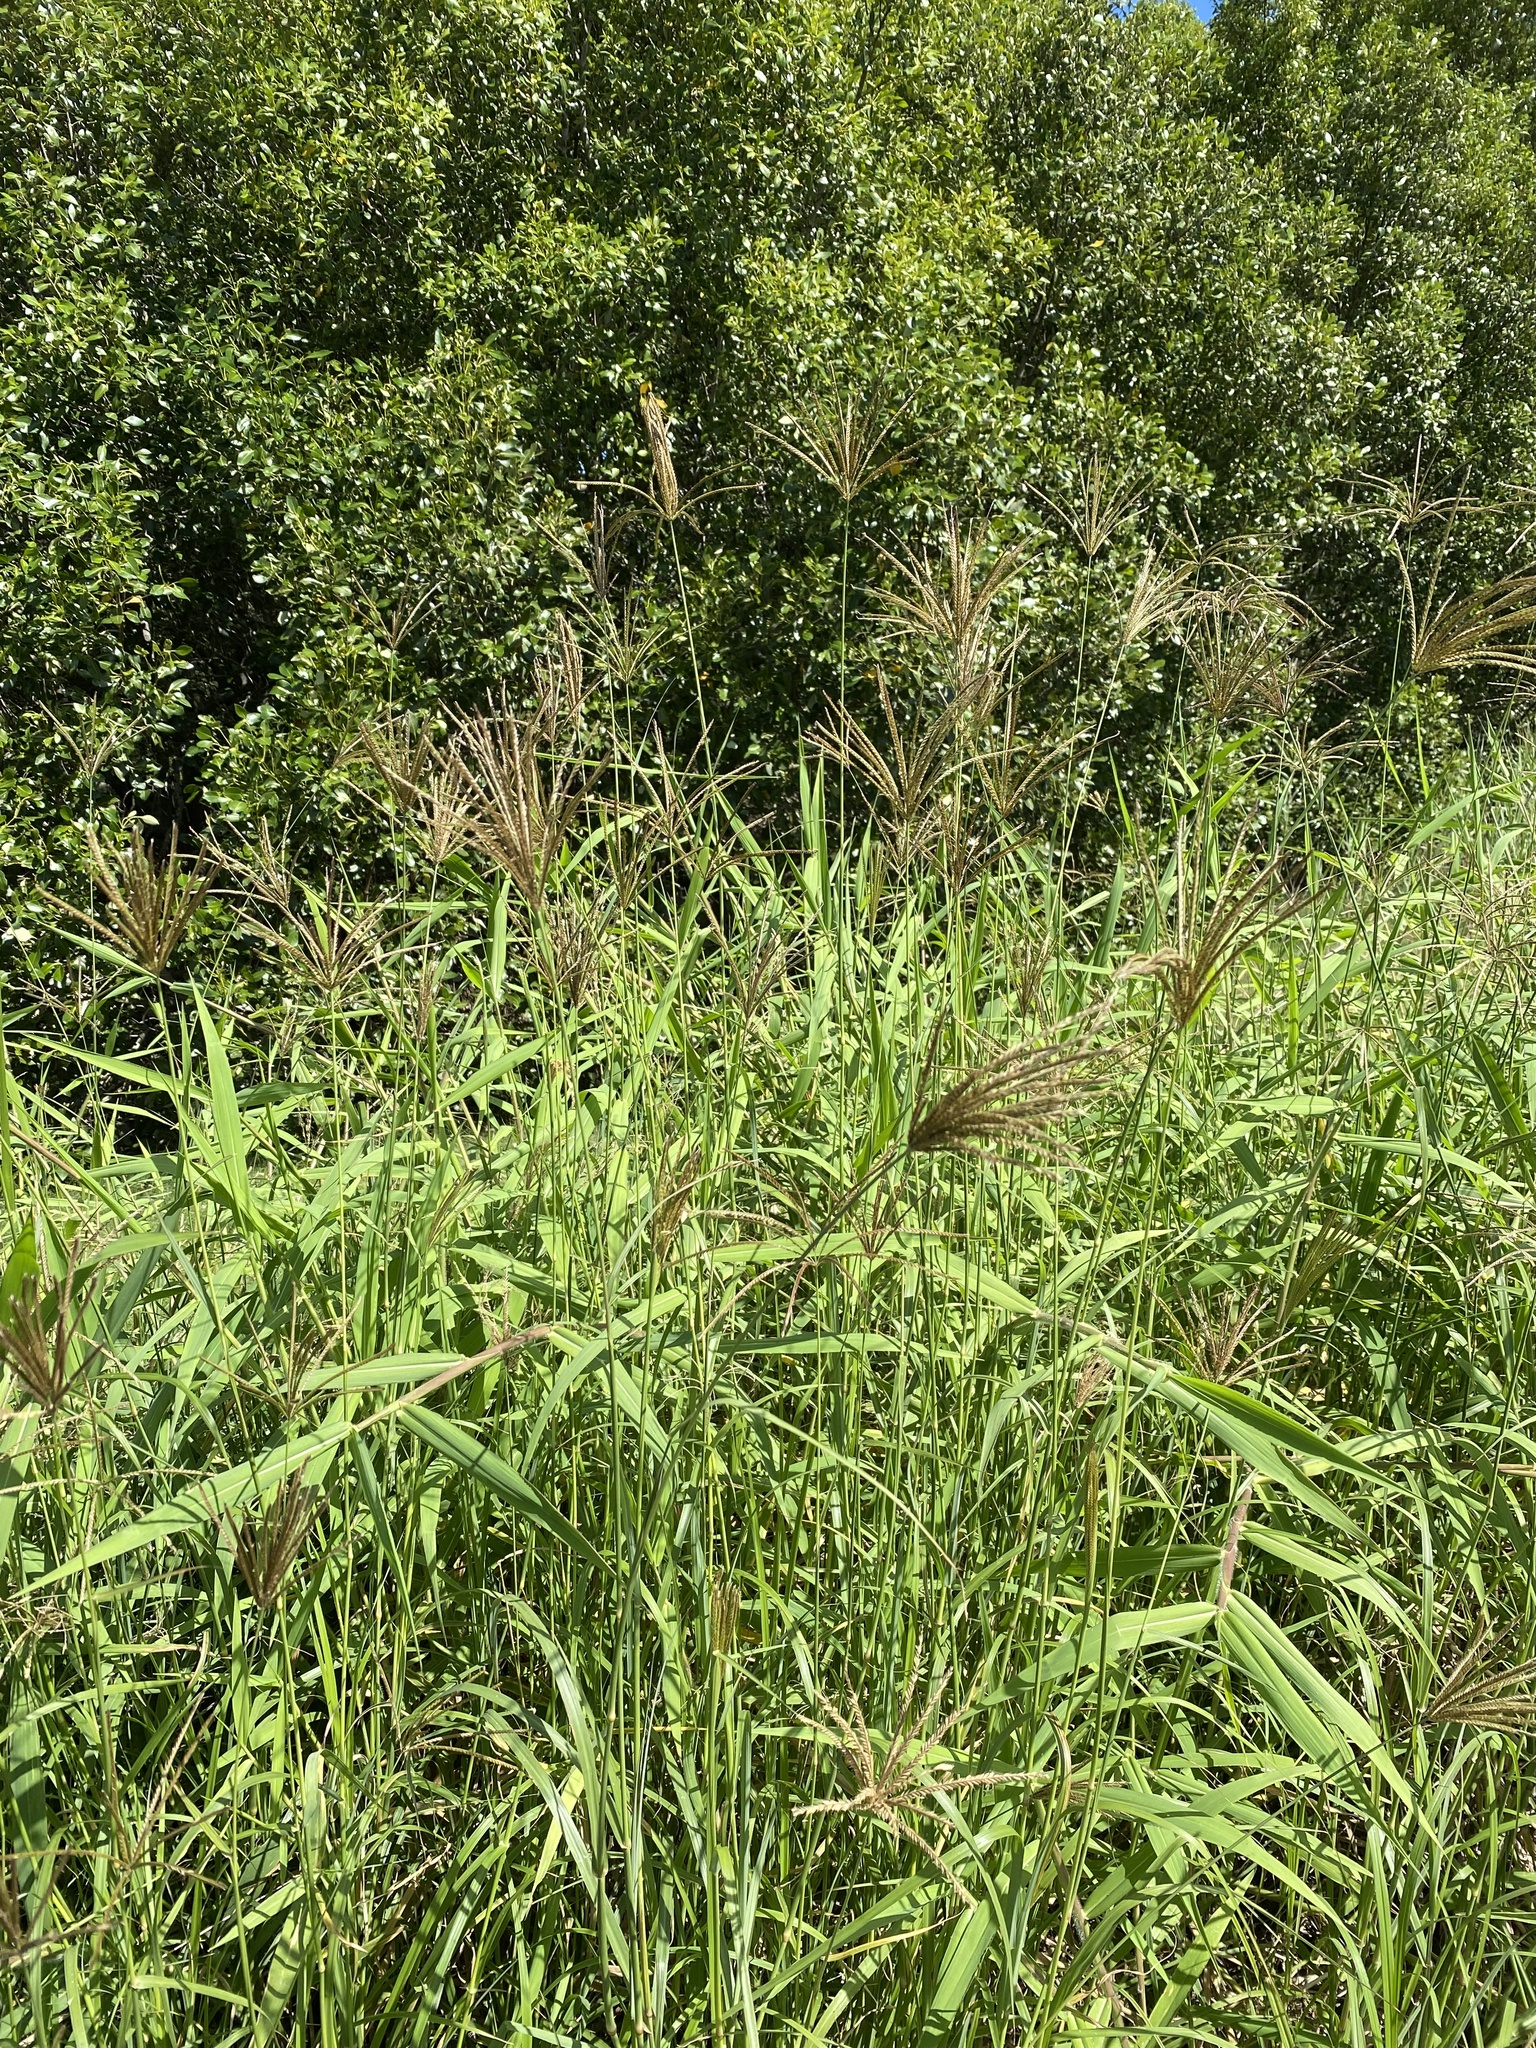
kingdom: Plantae
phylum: Tracheophyta
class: Liliopsida
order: Poales
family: Poaceae
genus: Chloris
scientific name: Chloris gayana
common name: Rhodes grass
